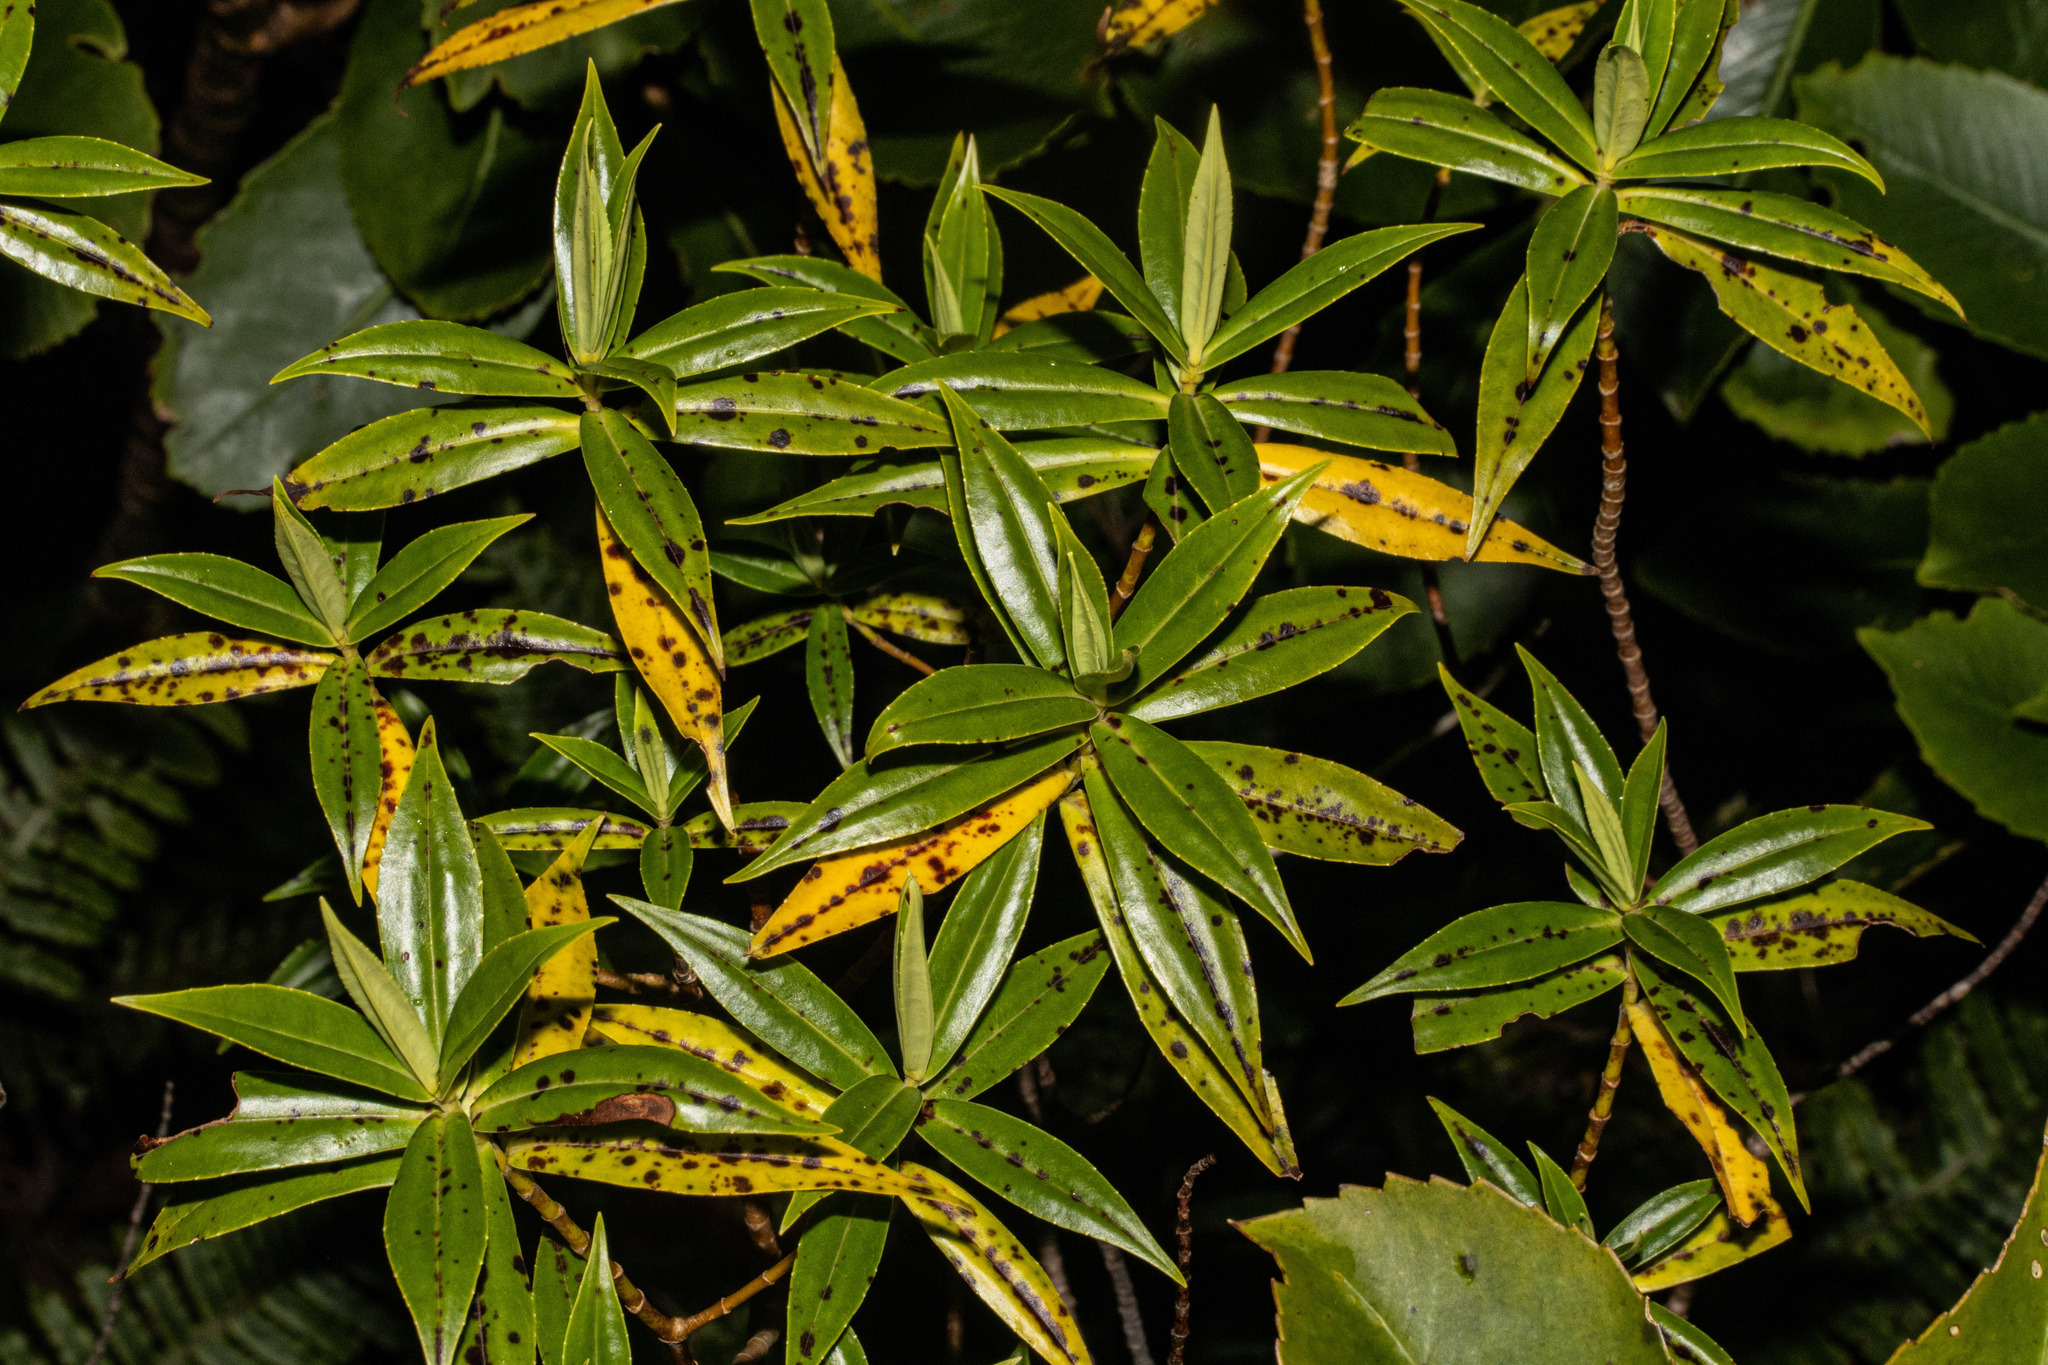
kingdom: Plantae
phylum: Tracheophyta
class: Magnoliopsida
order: Lamiales
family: Plantaginaceae
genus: Veronica
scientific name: Veronica salicifolia
